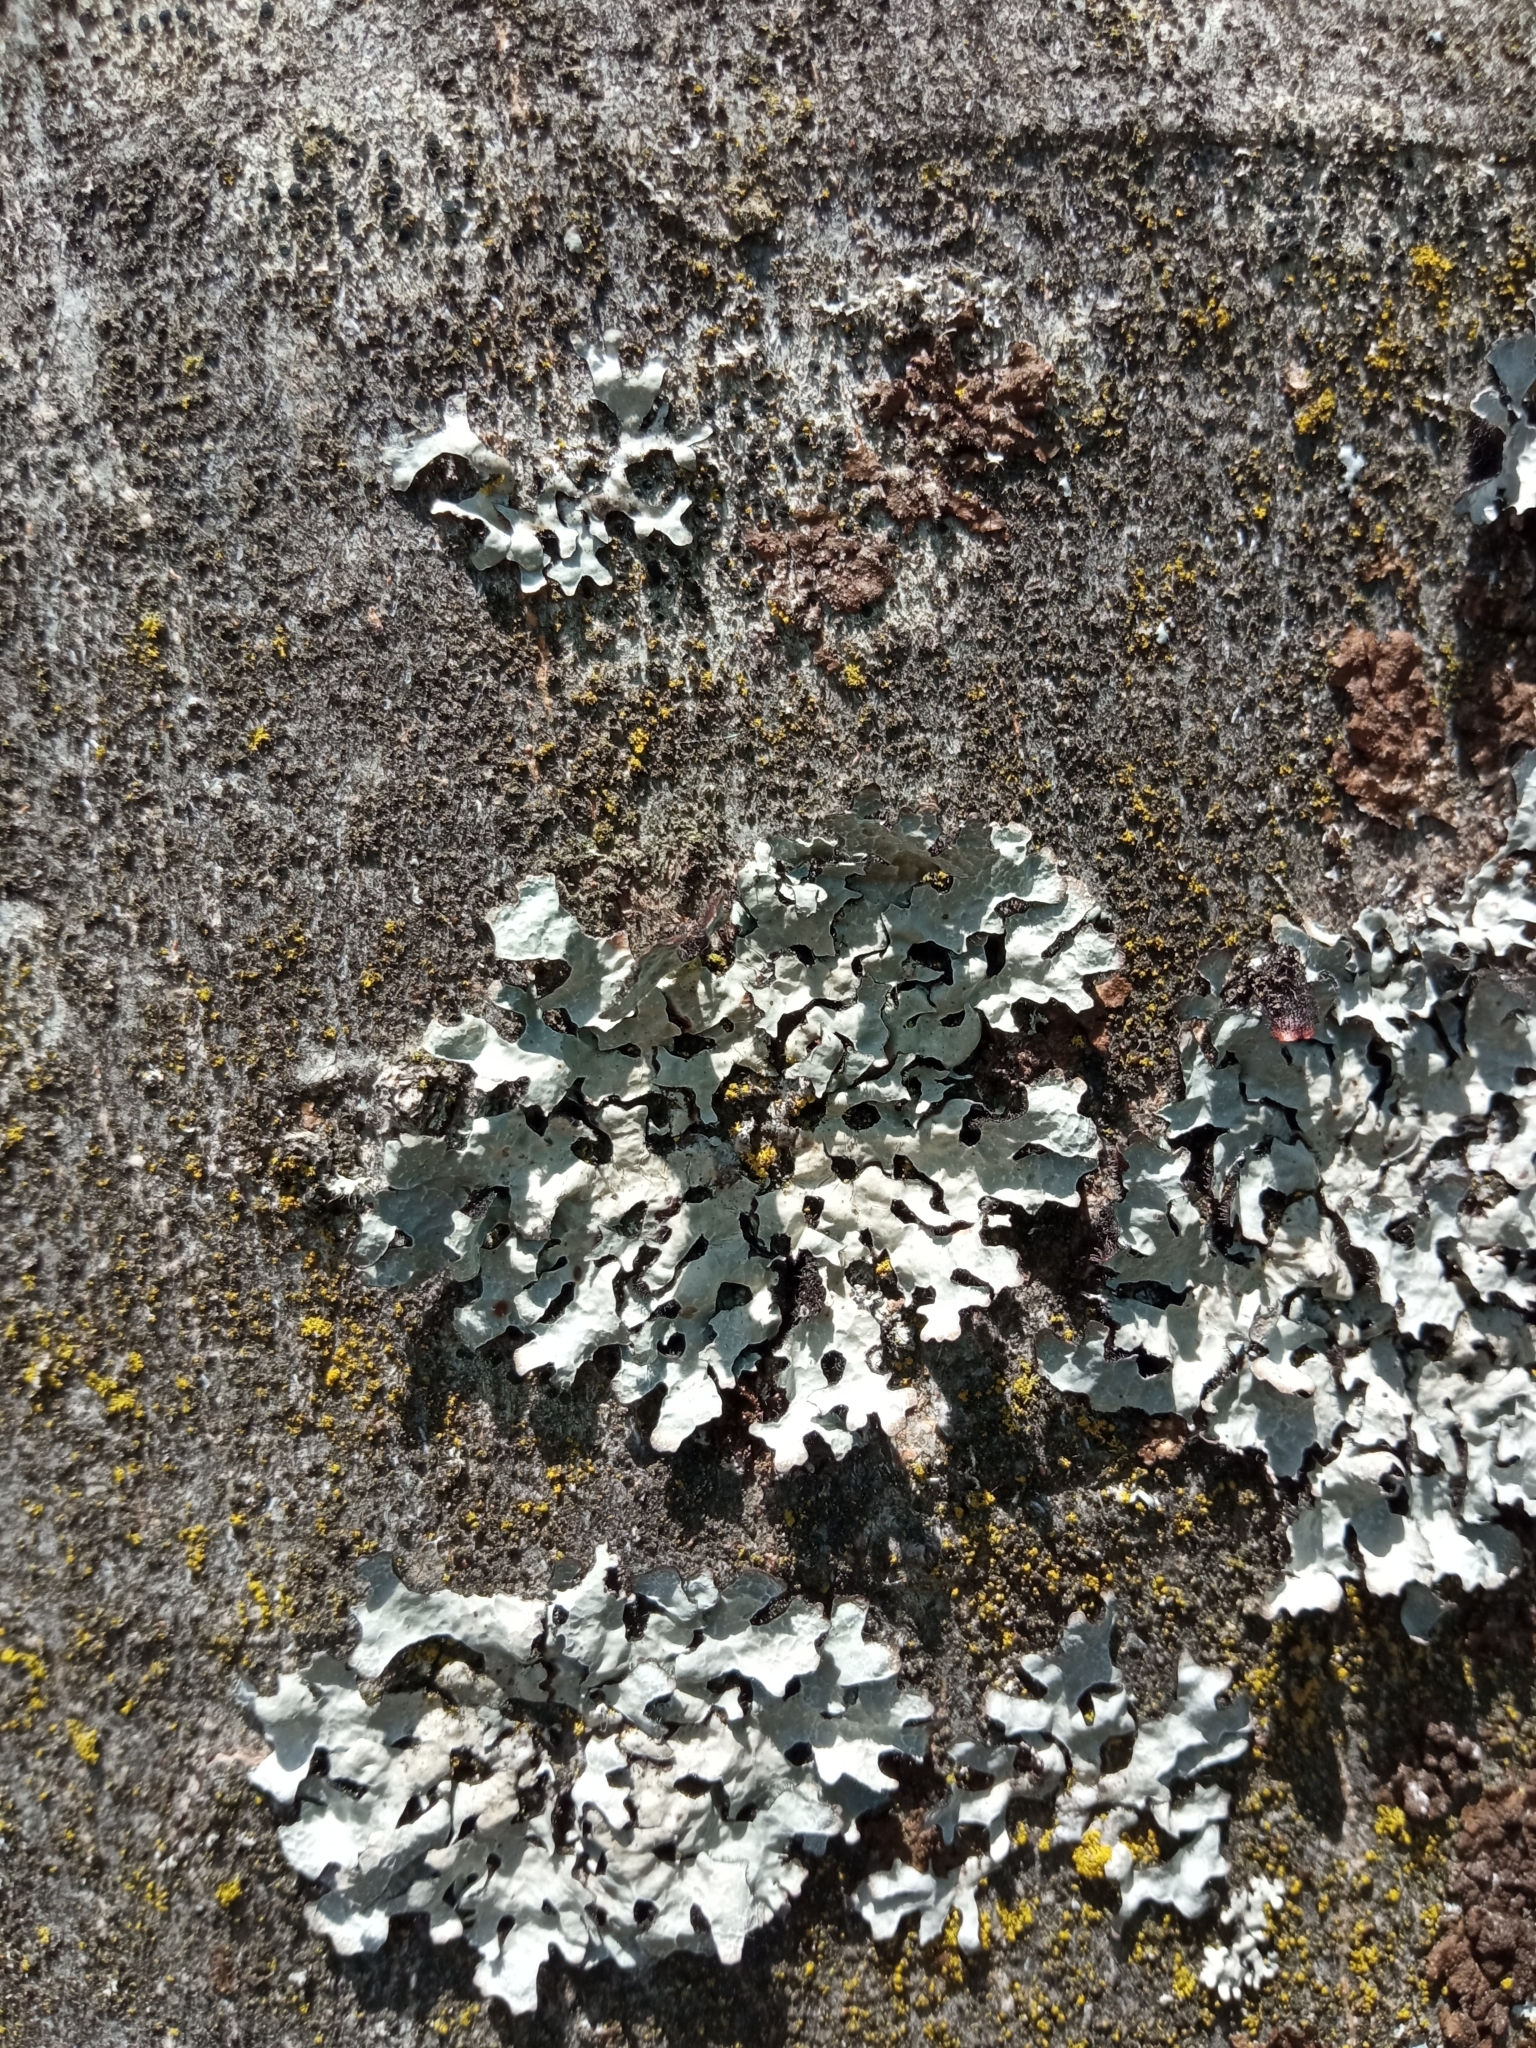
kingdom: Fungi
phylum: Ascomycota
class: Lecanoromycetes
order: Lecanorales
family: Parmeliaceae
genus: Parmelia
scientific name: Parmelia sulcata
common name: Netted shield lichen
